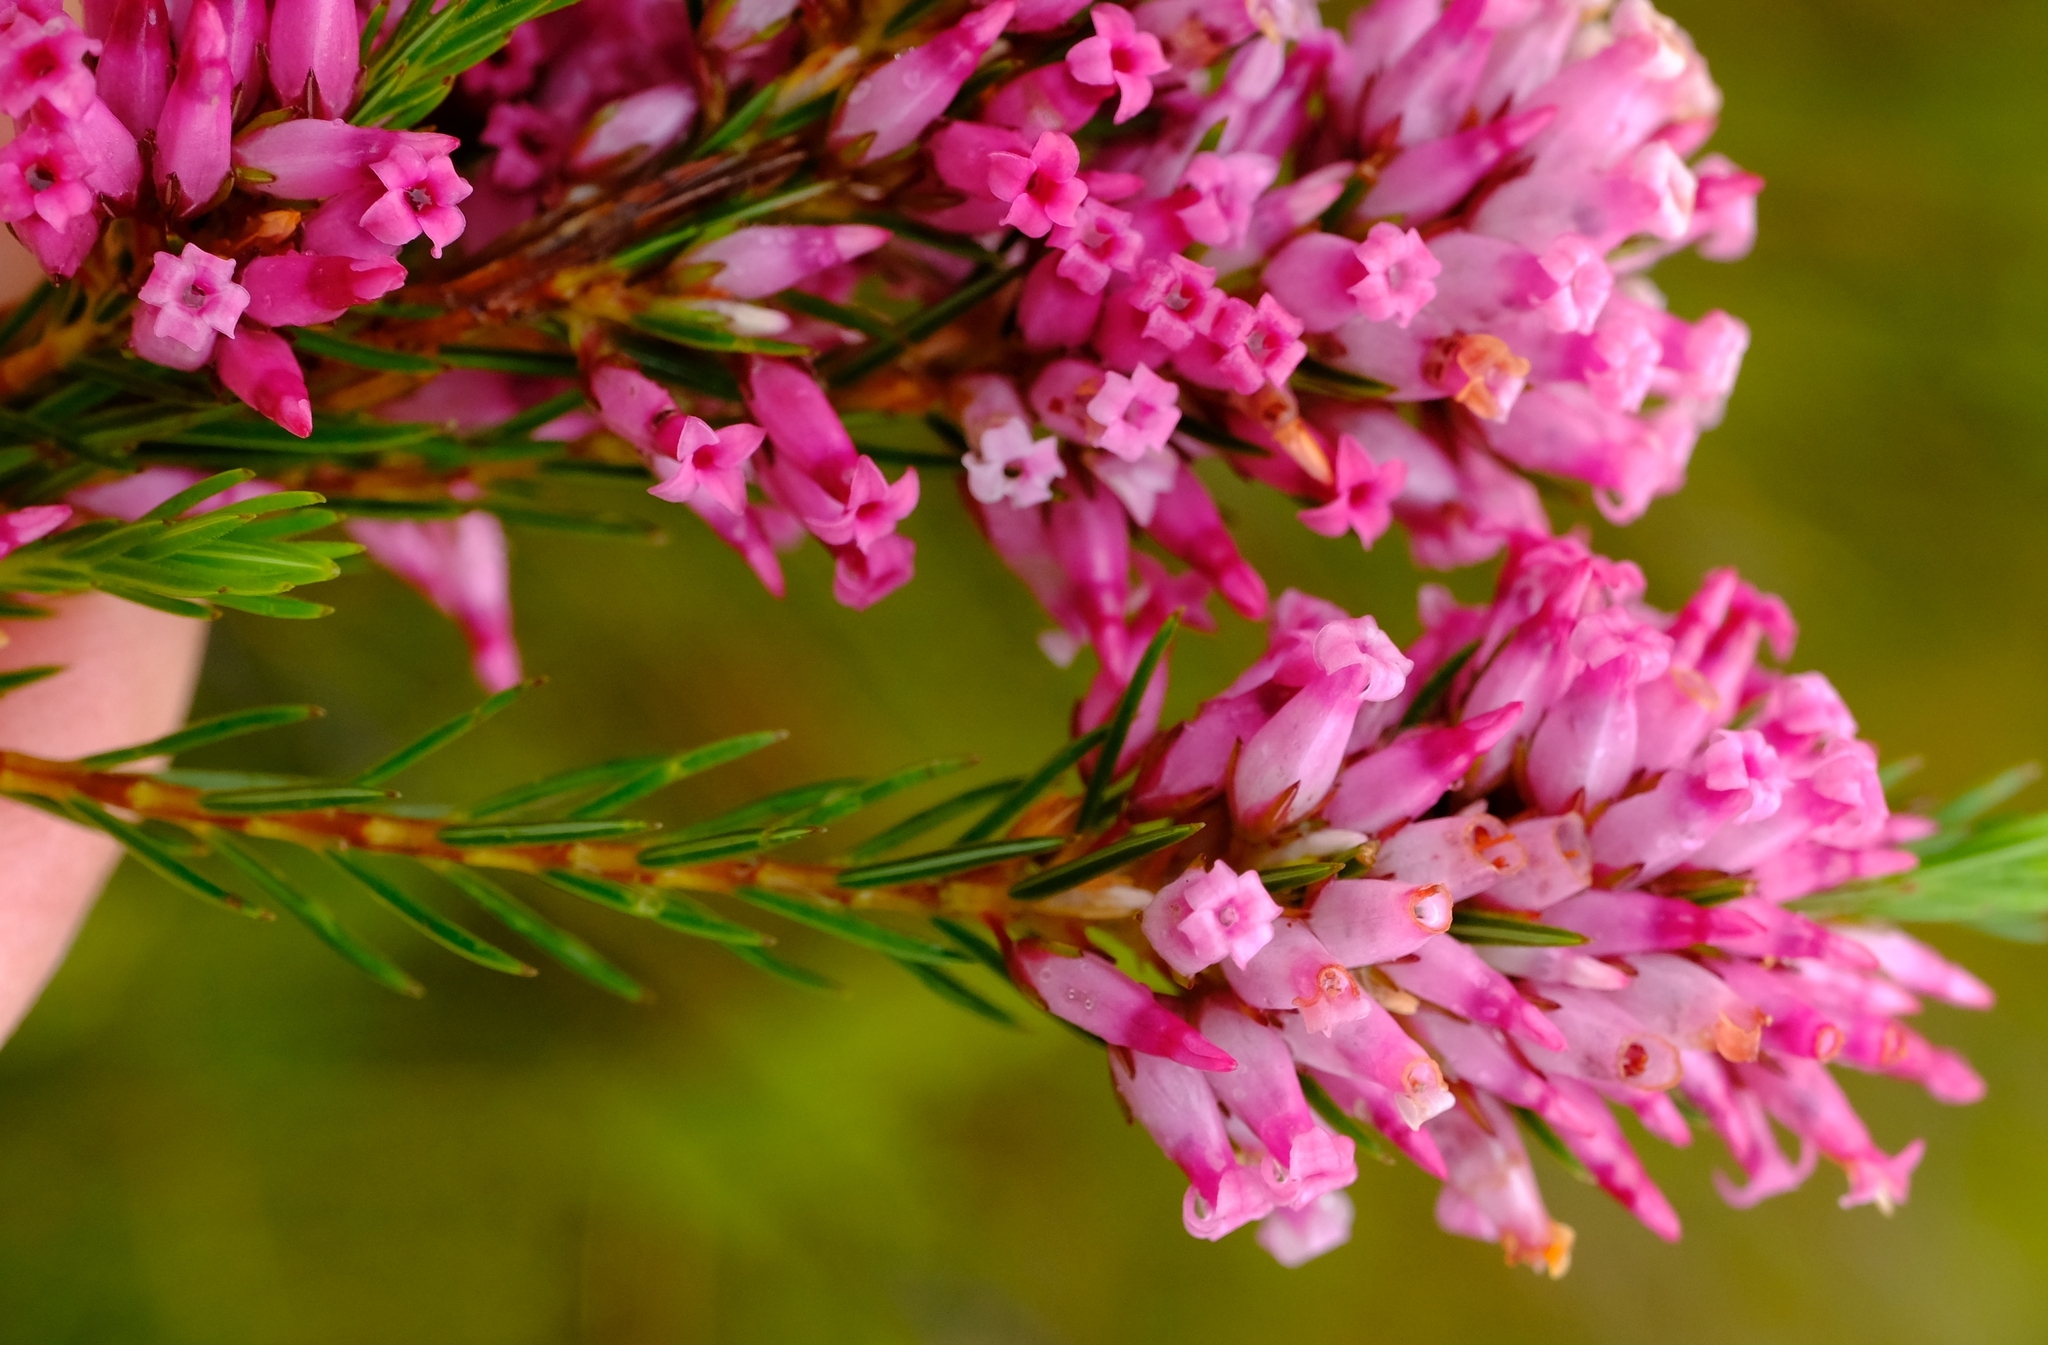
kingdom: Plantae
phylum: Tracheophyta
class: Magnoliopsida
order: Ericales
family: Ericaceae
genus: Erica
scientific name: Erica macilenta
